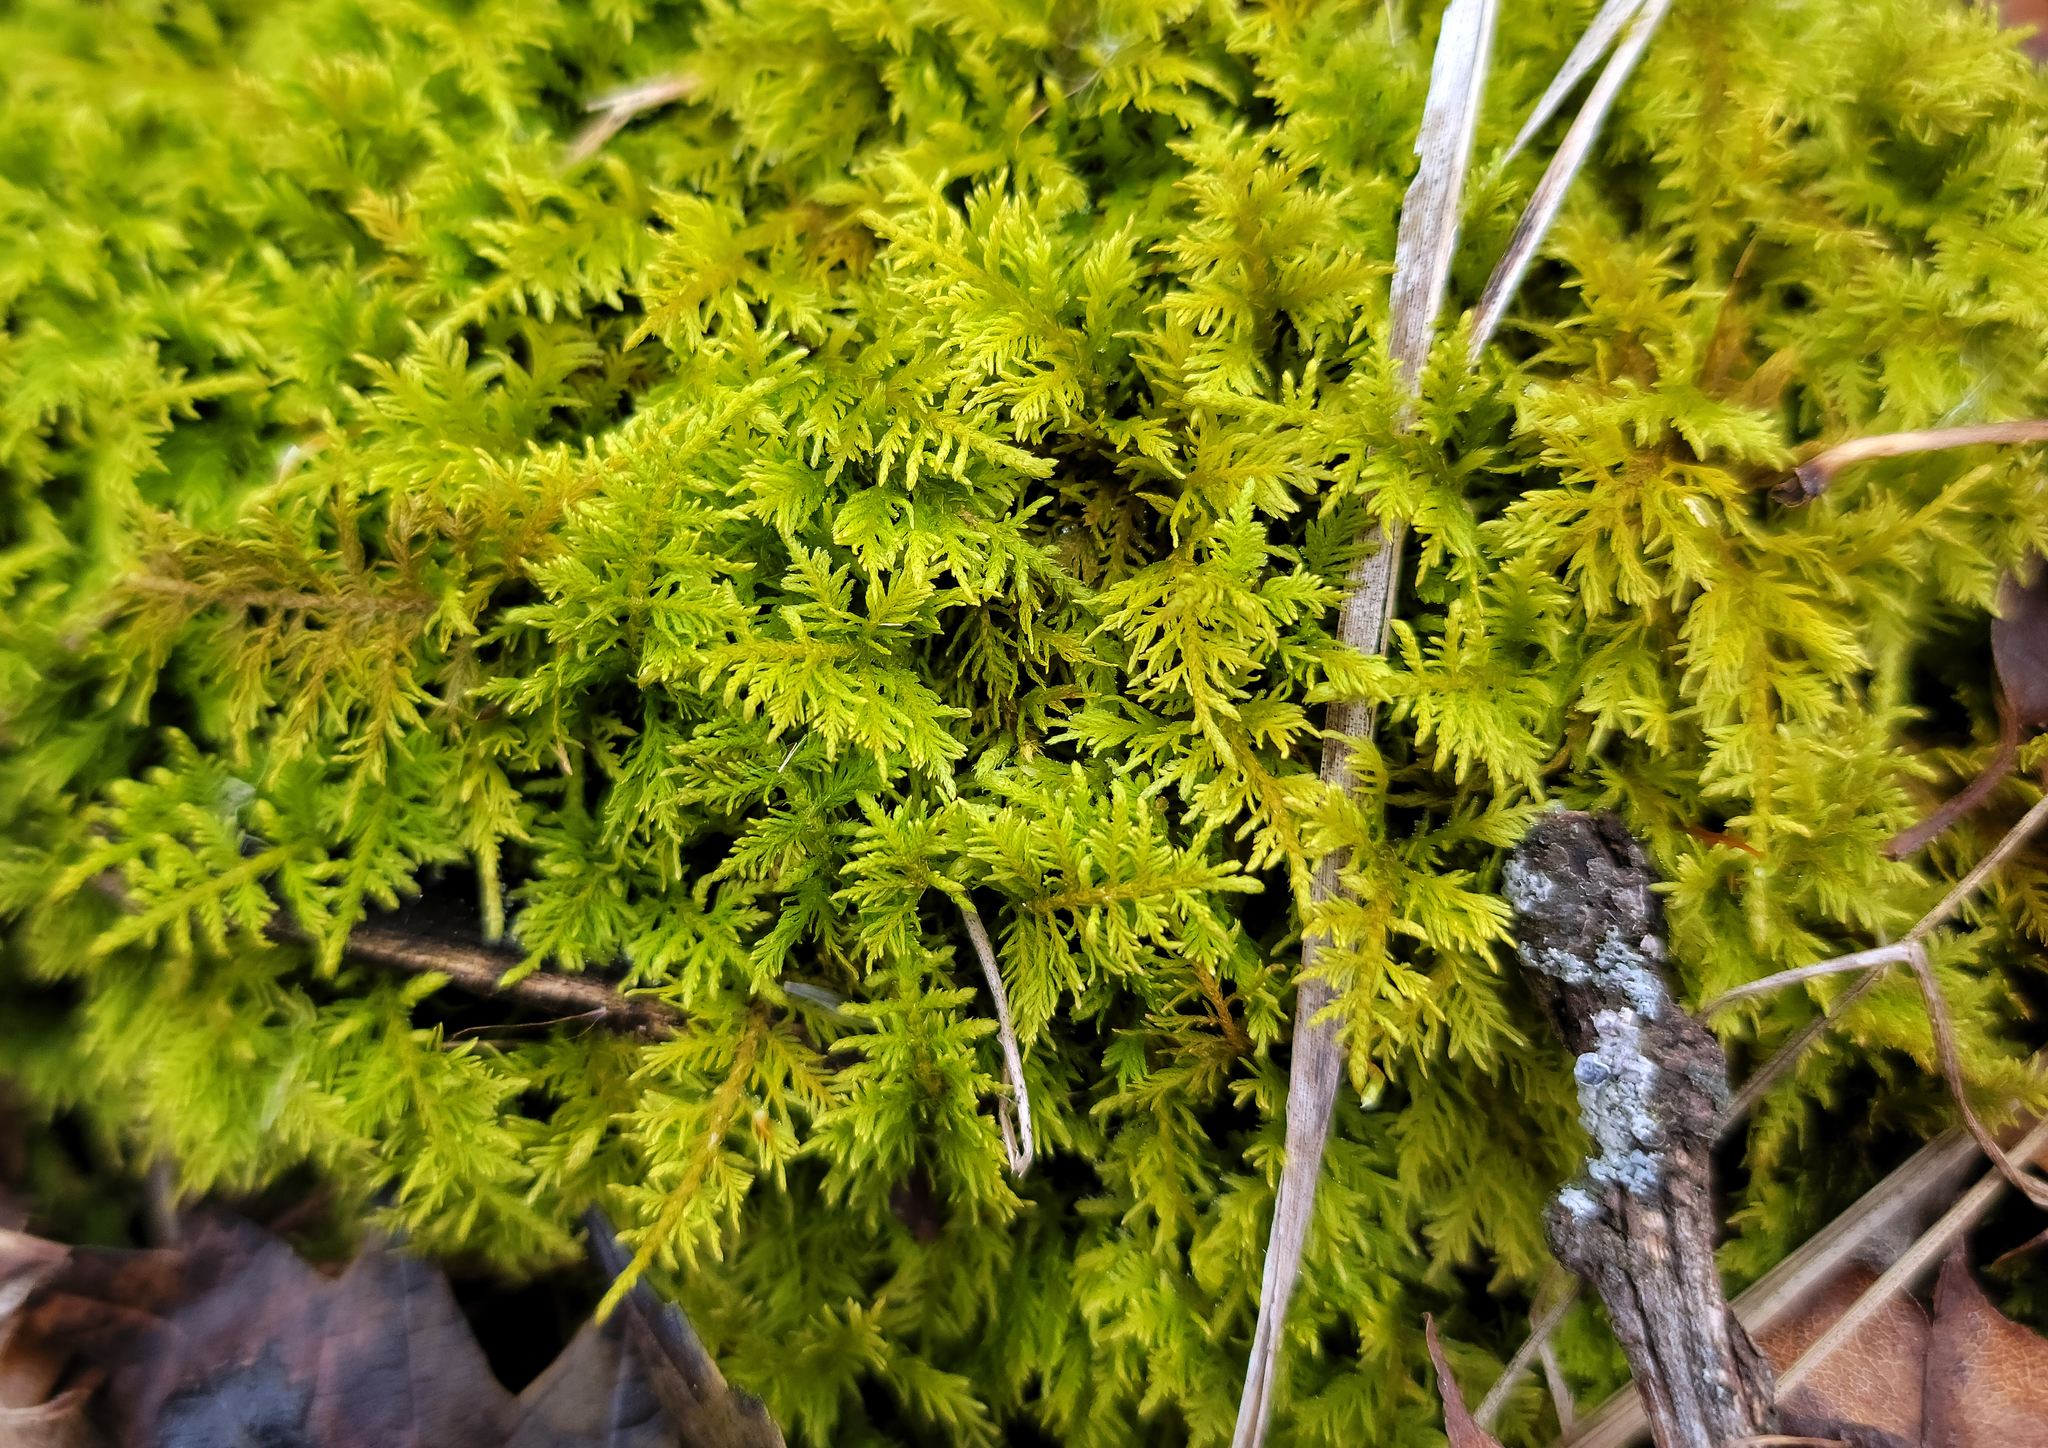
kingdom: Plantae
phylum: Bryophyta
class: Bryopsida
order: Hypnales
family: Thuidiaceae
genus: Thuidium
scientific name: Thuidium delicatulum
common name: Delicate fern moss
